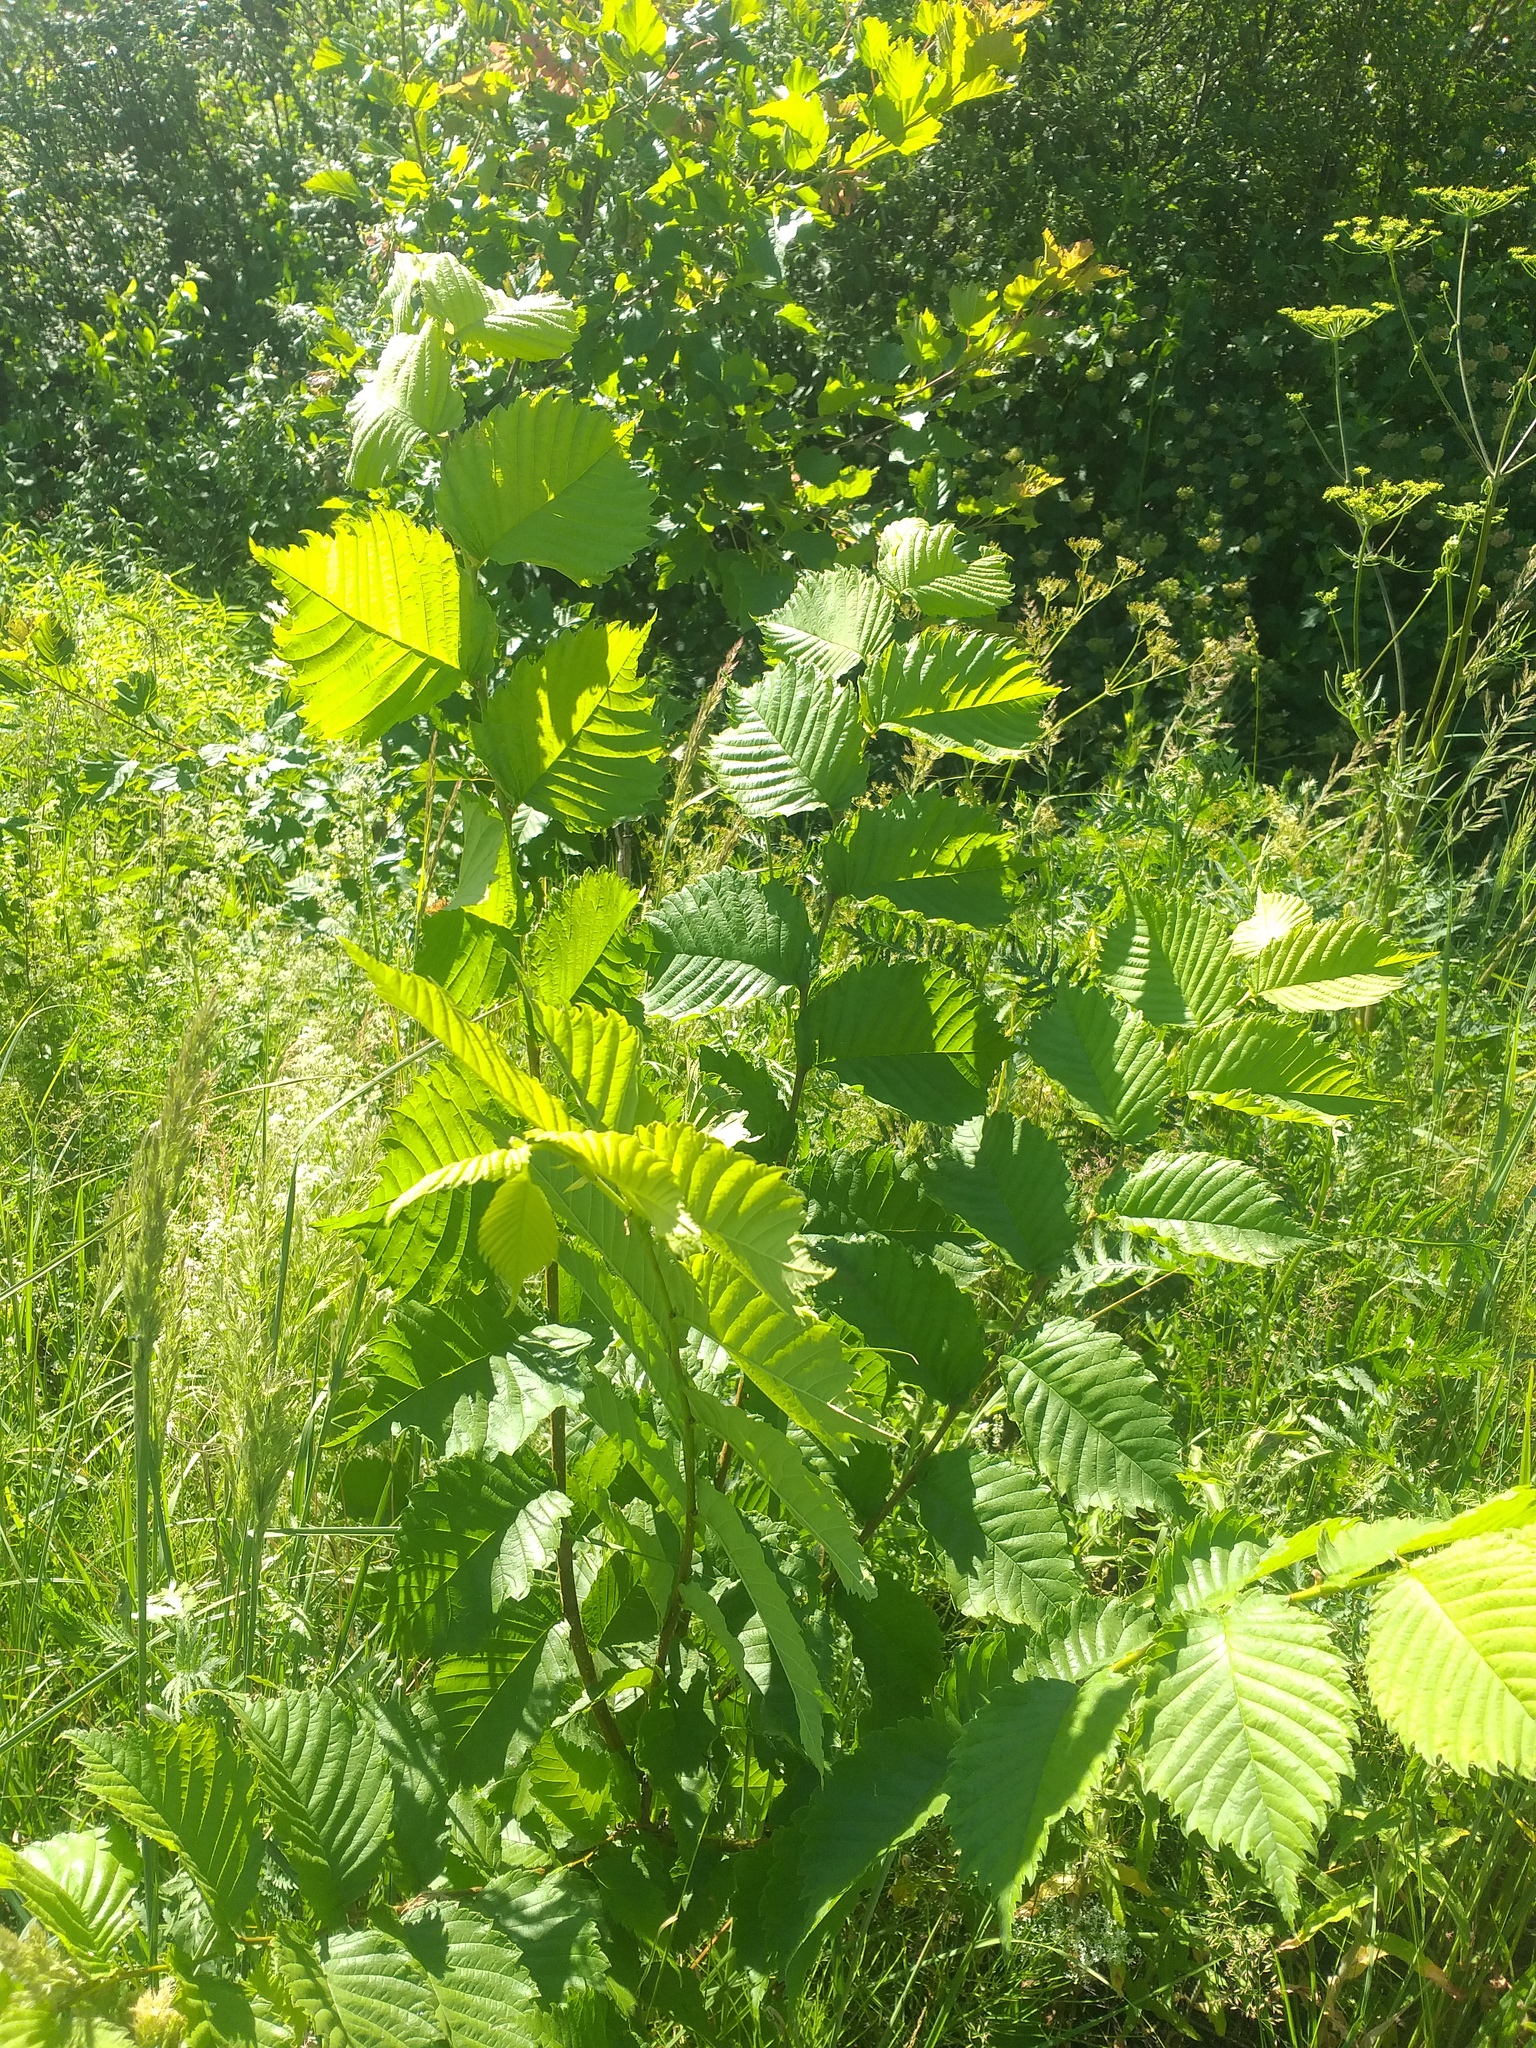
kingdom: Plantae
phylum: Tracheophyta
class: Magnoliopsida
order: Rosales
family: Ulmaceae
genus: Ulmus
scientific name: Ulmus laevis
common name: European white-elm
